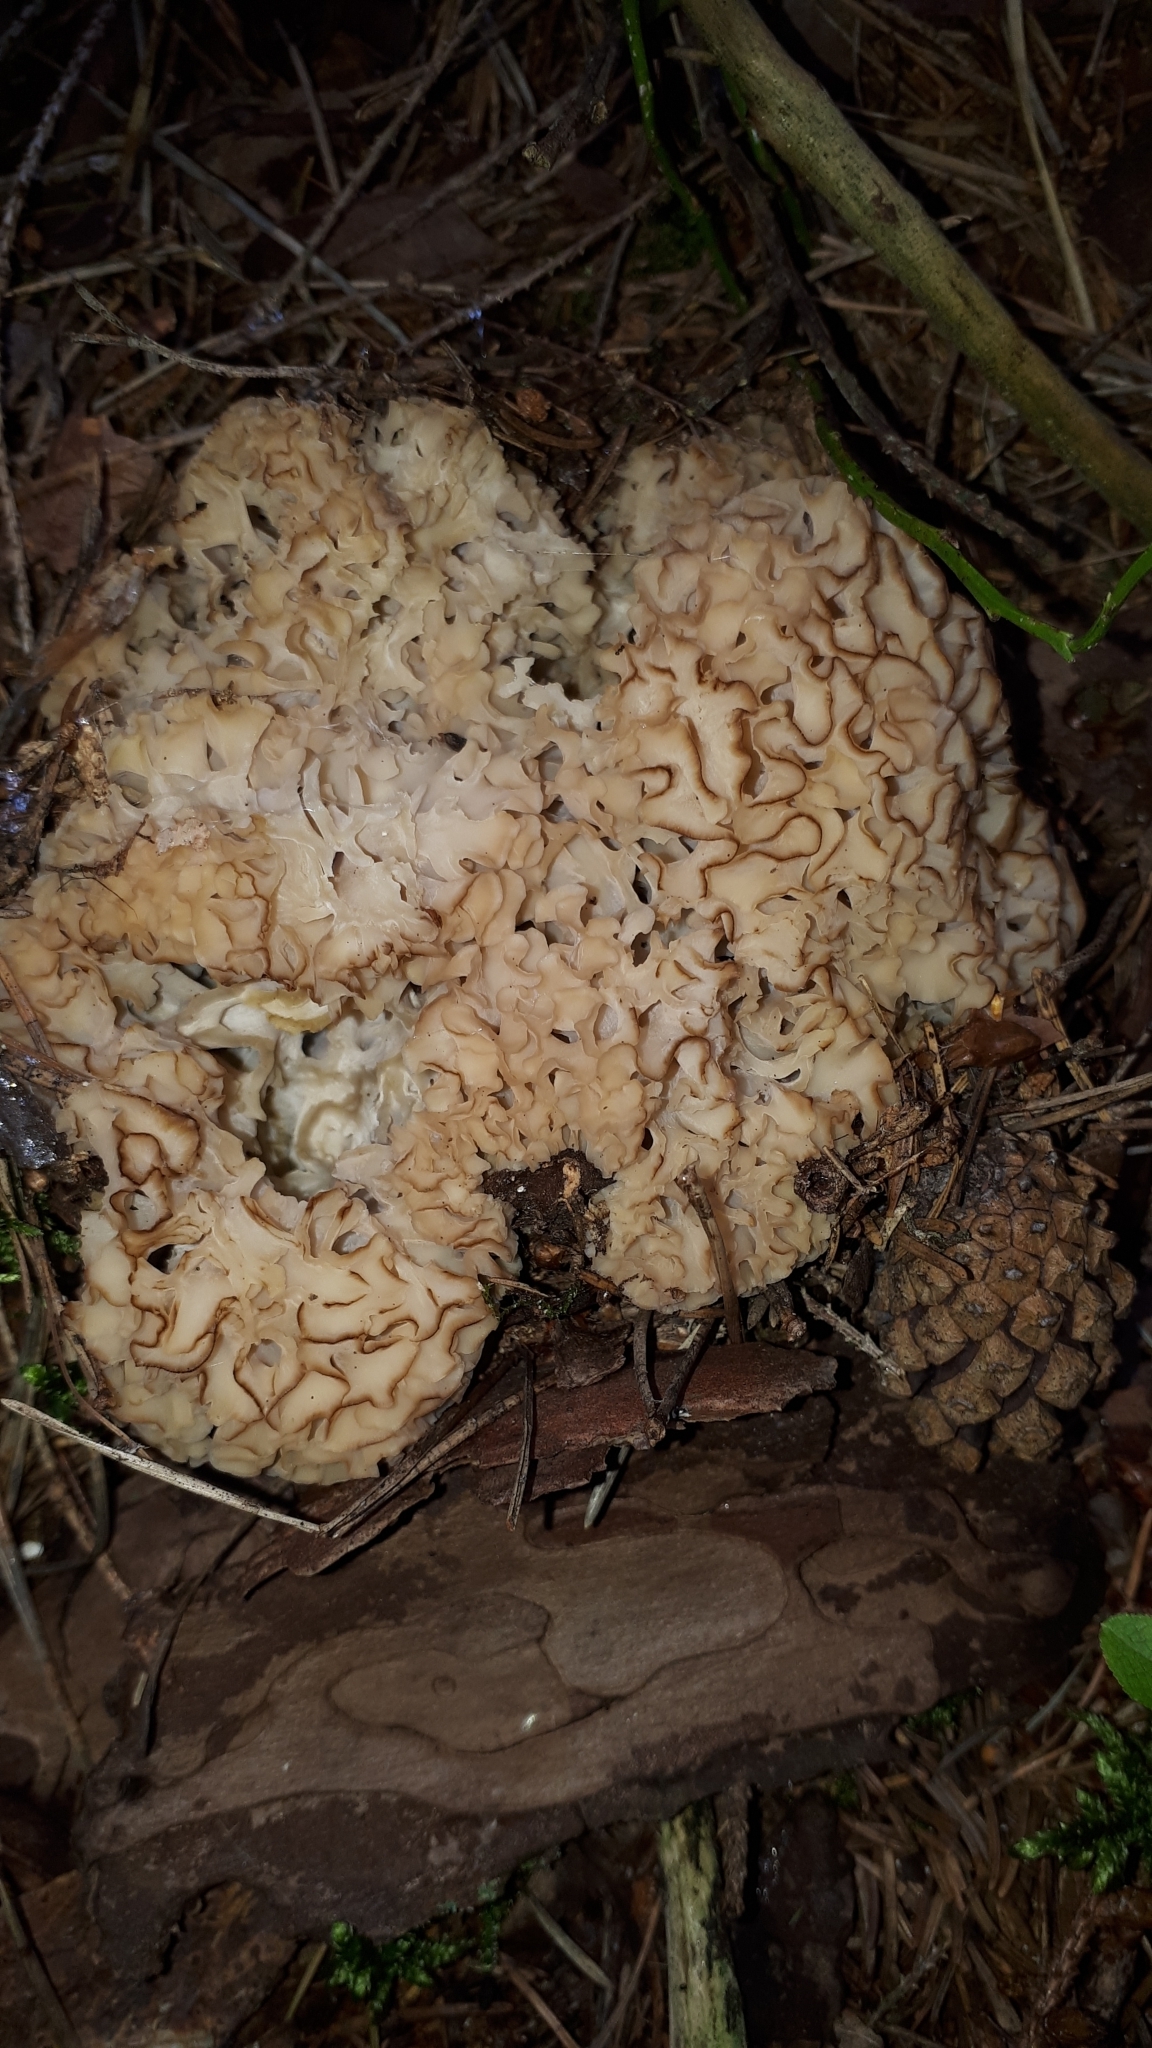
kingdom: Fungi
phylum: Basidiomycota
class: Agaricomycetes
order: Polyporales
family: Sparassidaceae
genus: Sparassis
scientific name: Sparassis crispa
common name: Brain fungus
